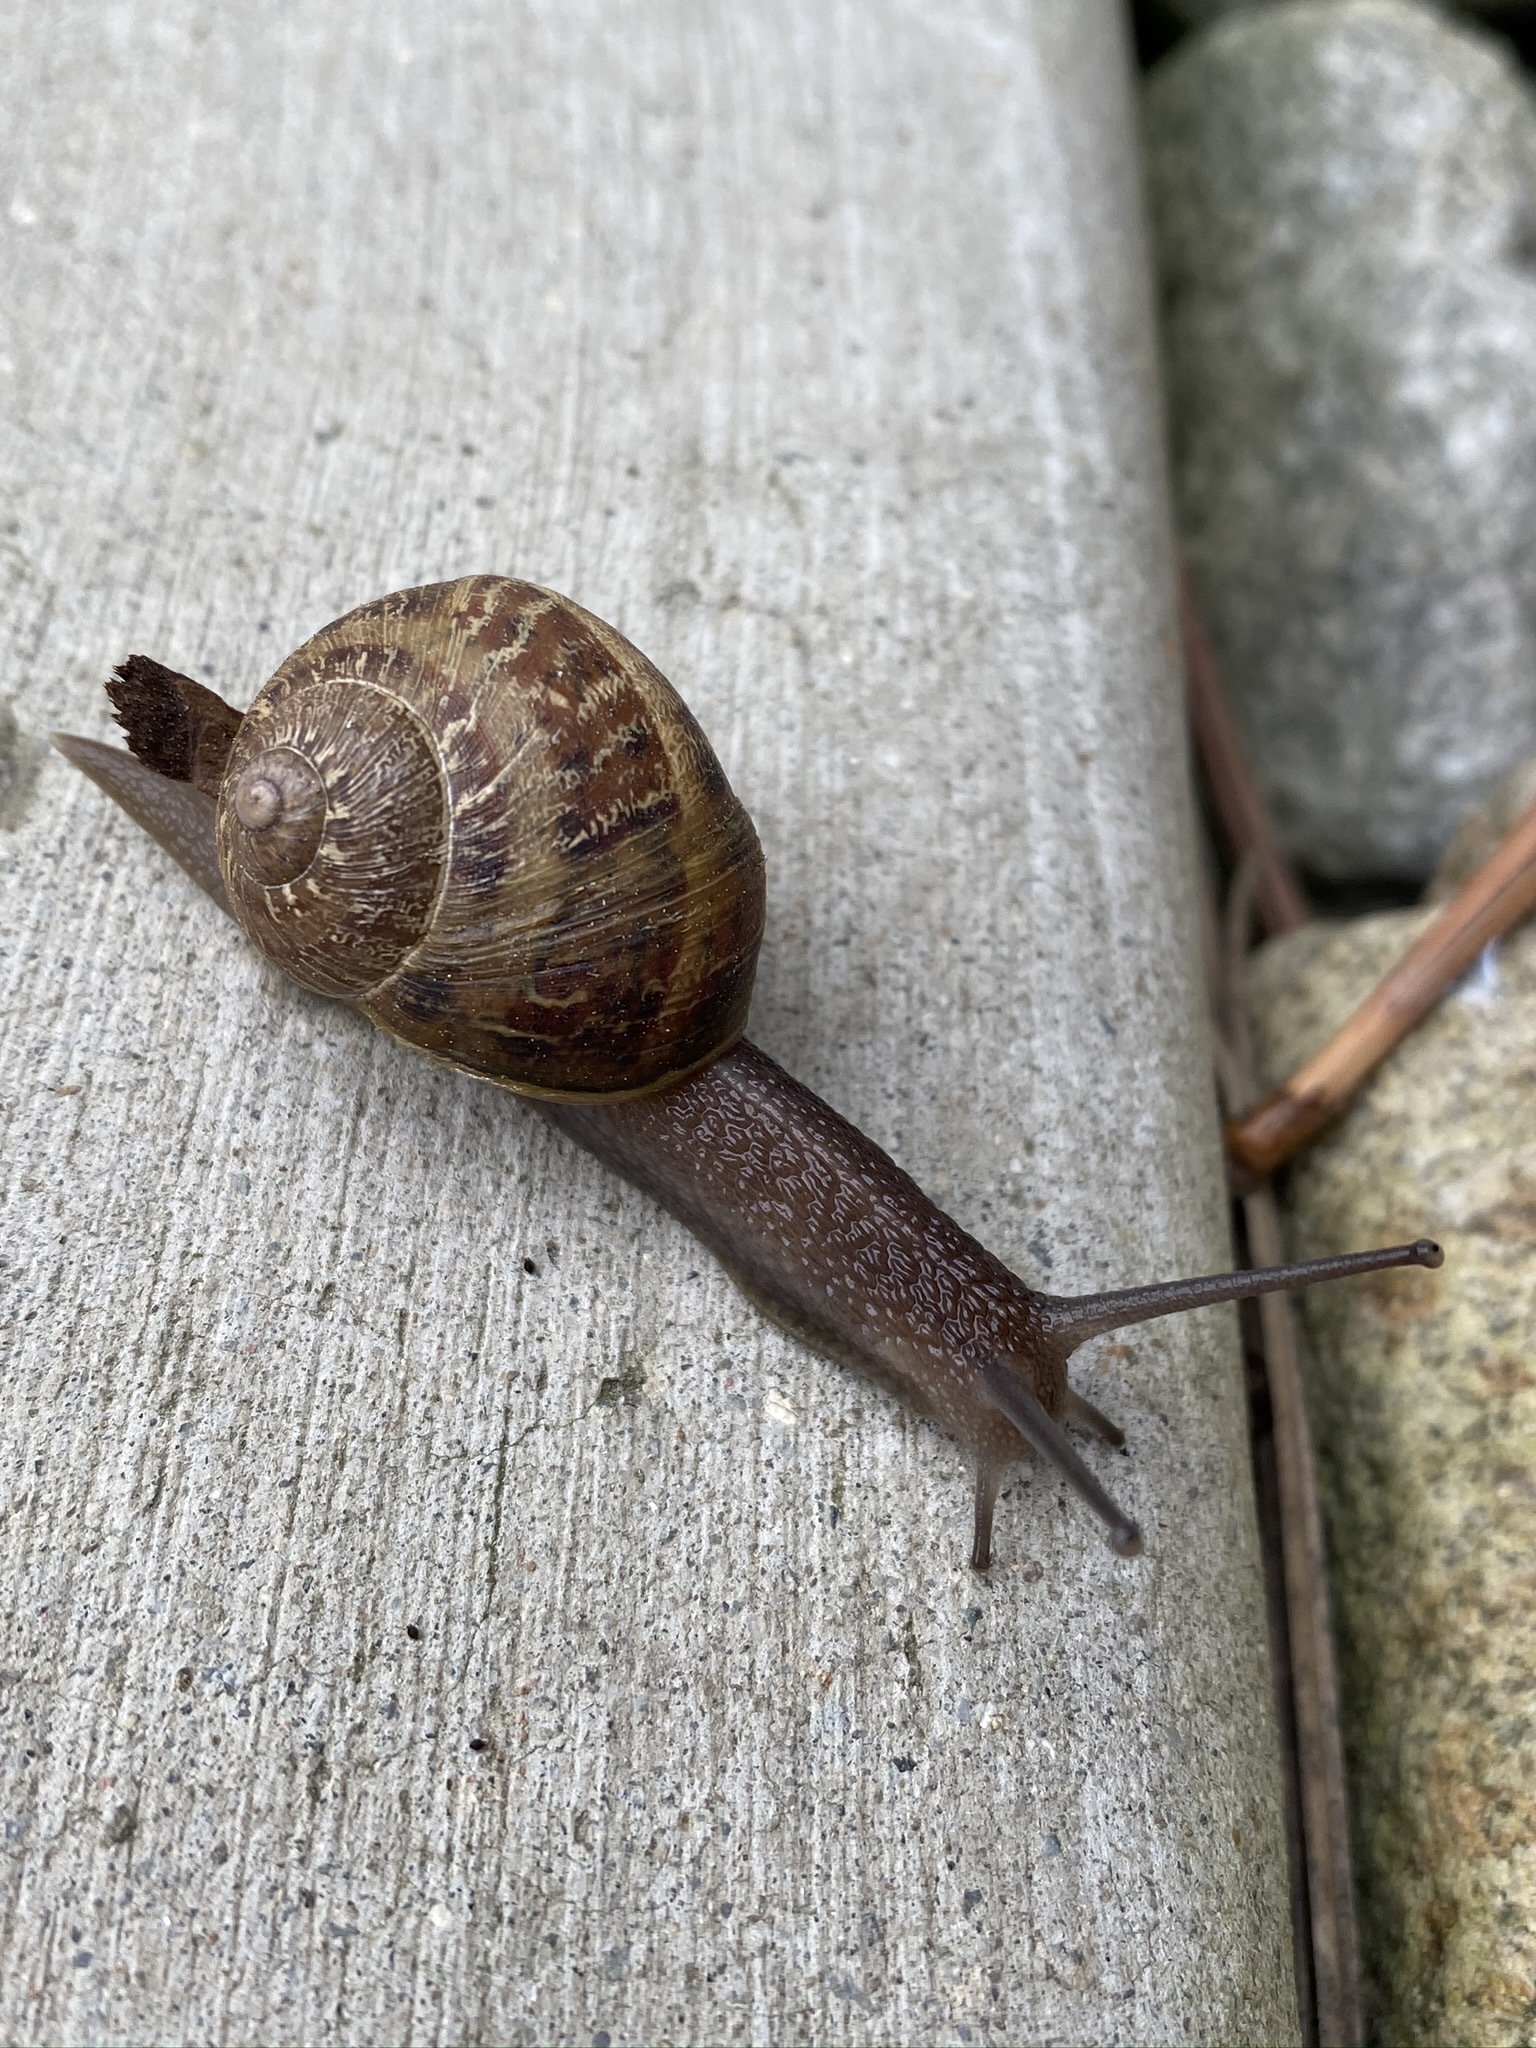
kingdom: Animalia
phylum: Mollusca
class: Gastropoda
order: Stylommatophora
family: Helicidae
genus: Cornu
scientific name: Cornu aspersum
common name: Brown garden snail
